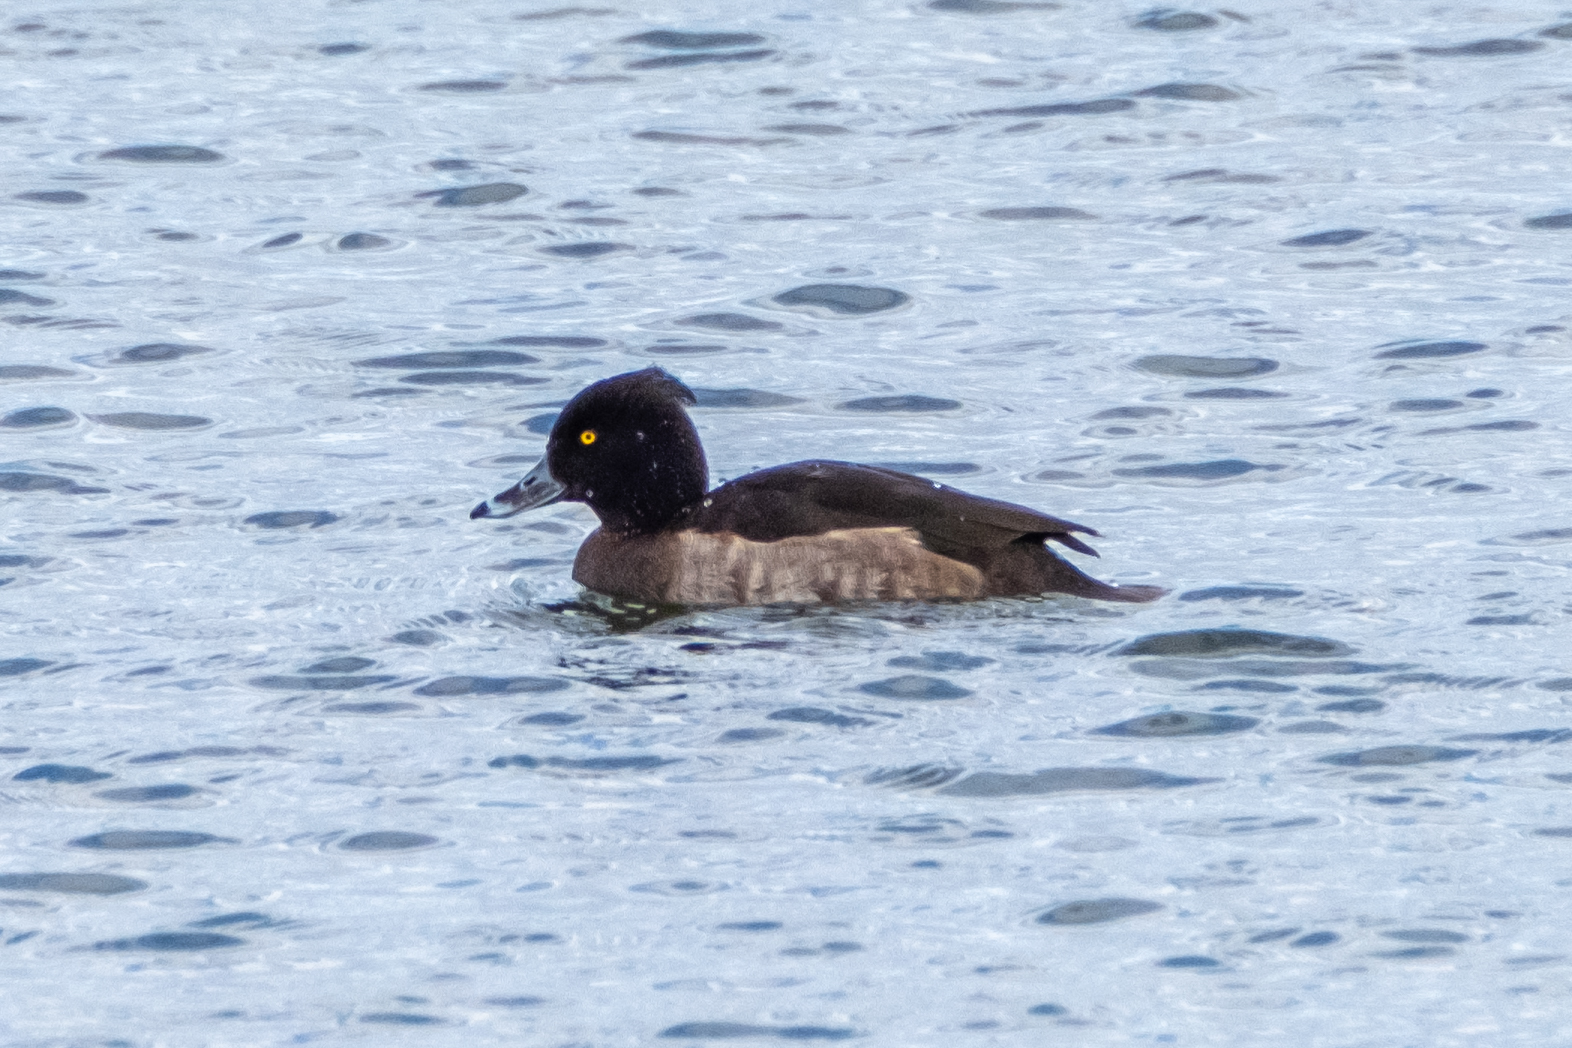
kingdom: Animalia
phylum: Chordata
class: Aves
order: Anseriformes
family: Anatidae
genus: Aythya
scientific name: Aythya fuligula
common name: Tufted duck
